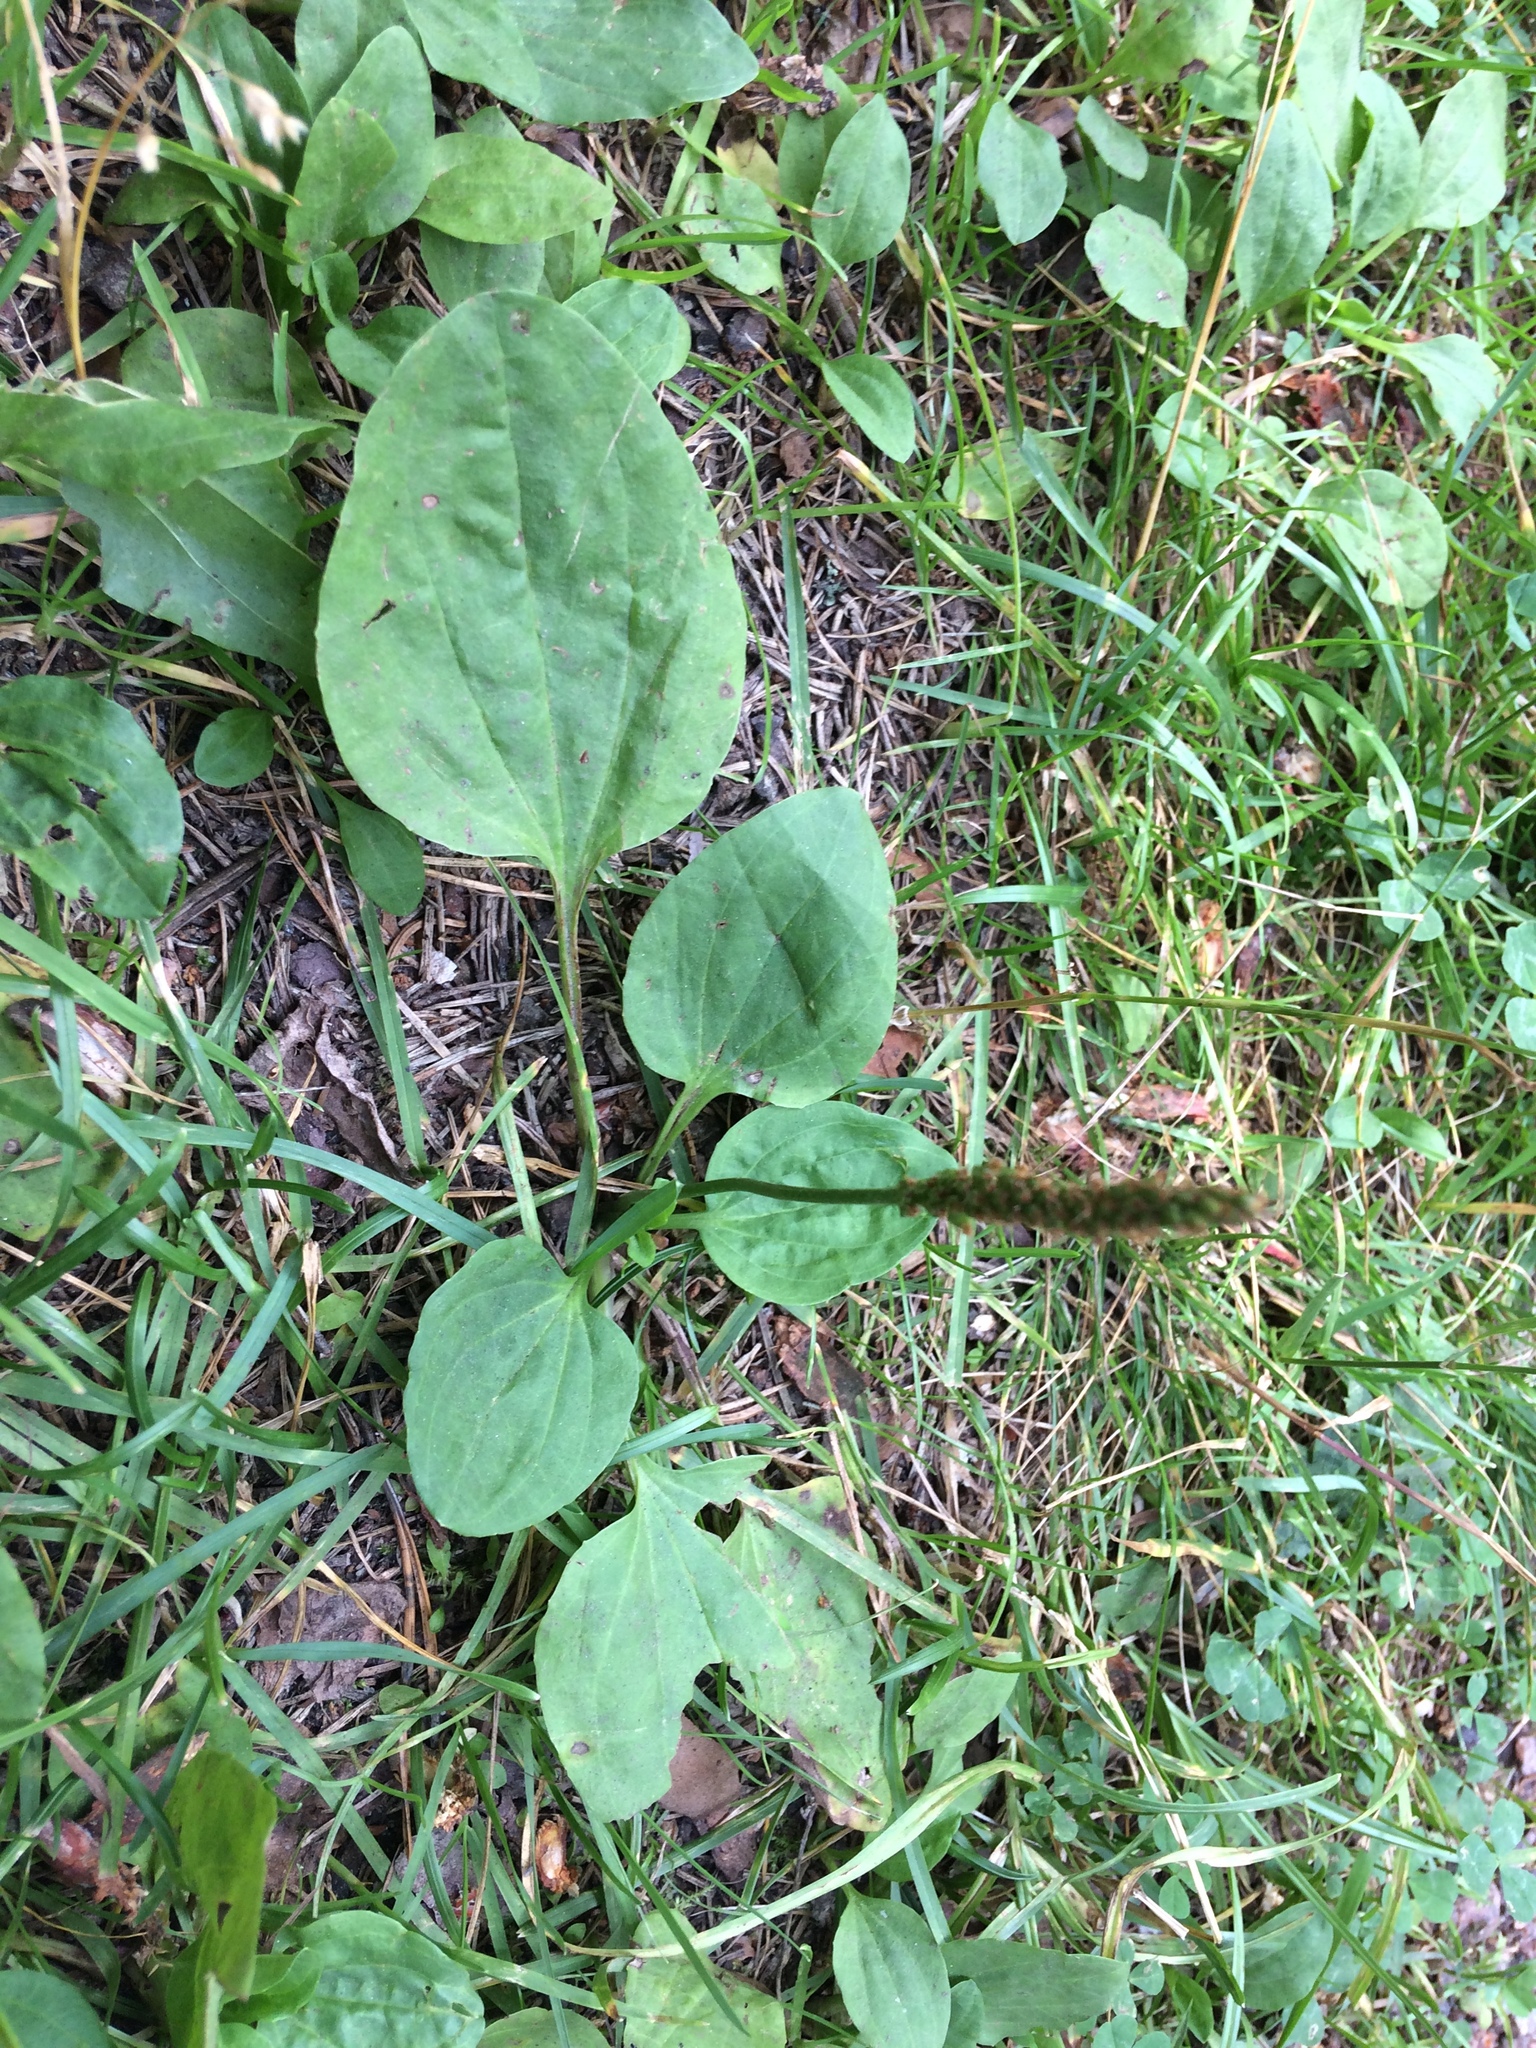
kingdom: Plantae
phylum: Tracheophyta
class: Magnoliopsida
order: Lamiales
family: Plantaginaceae
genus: Plantago
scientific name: Plantago major
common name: Common plantain
